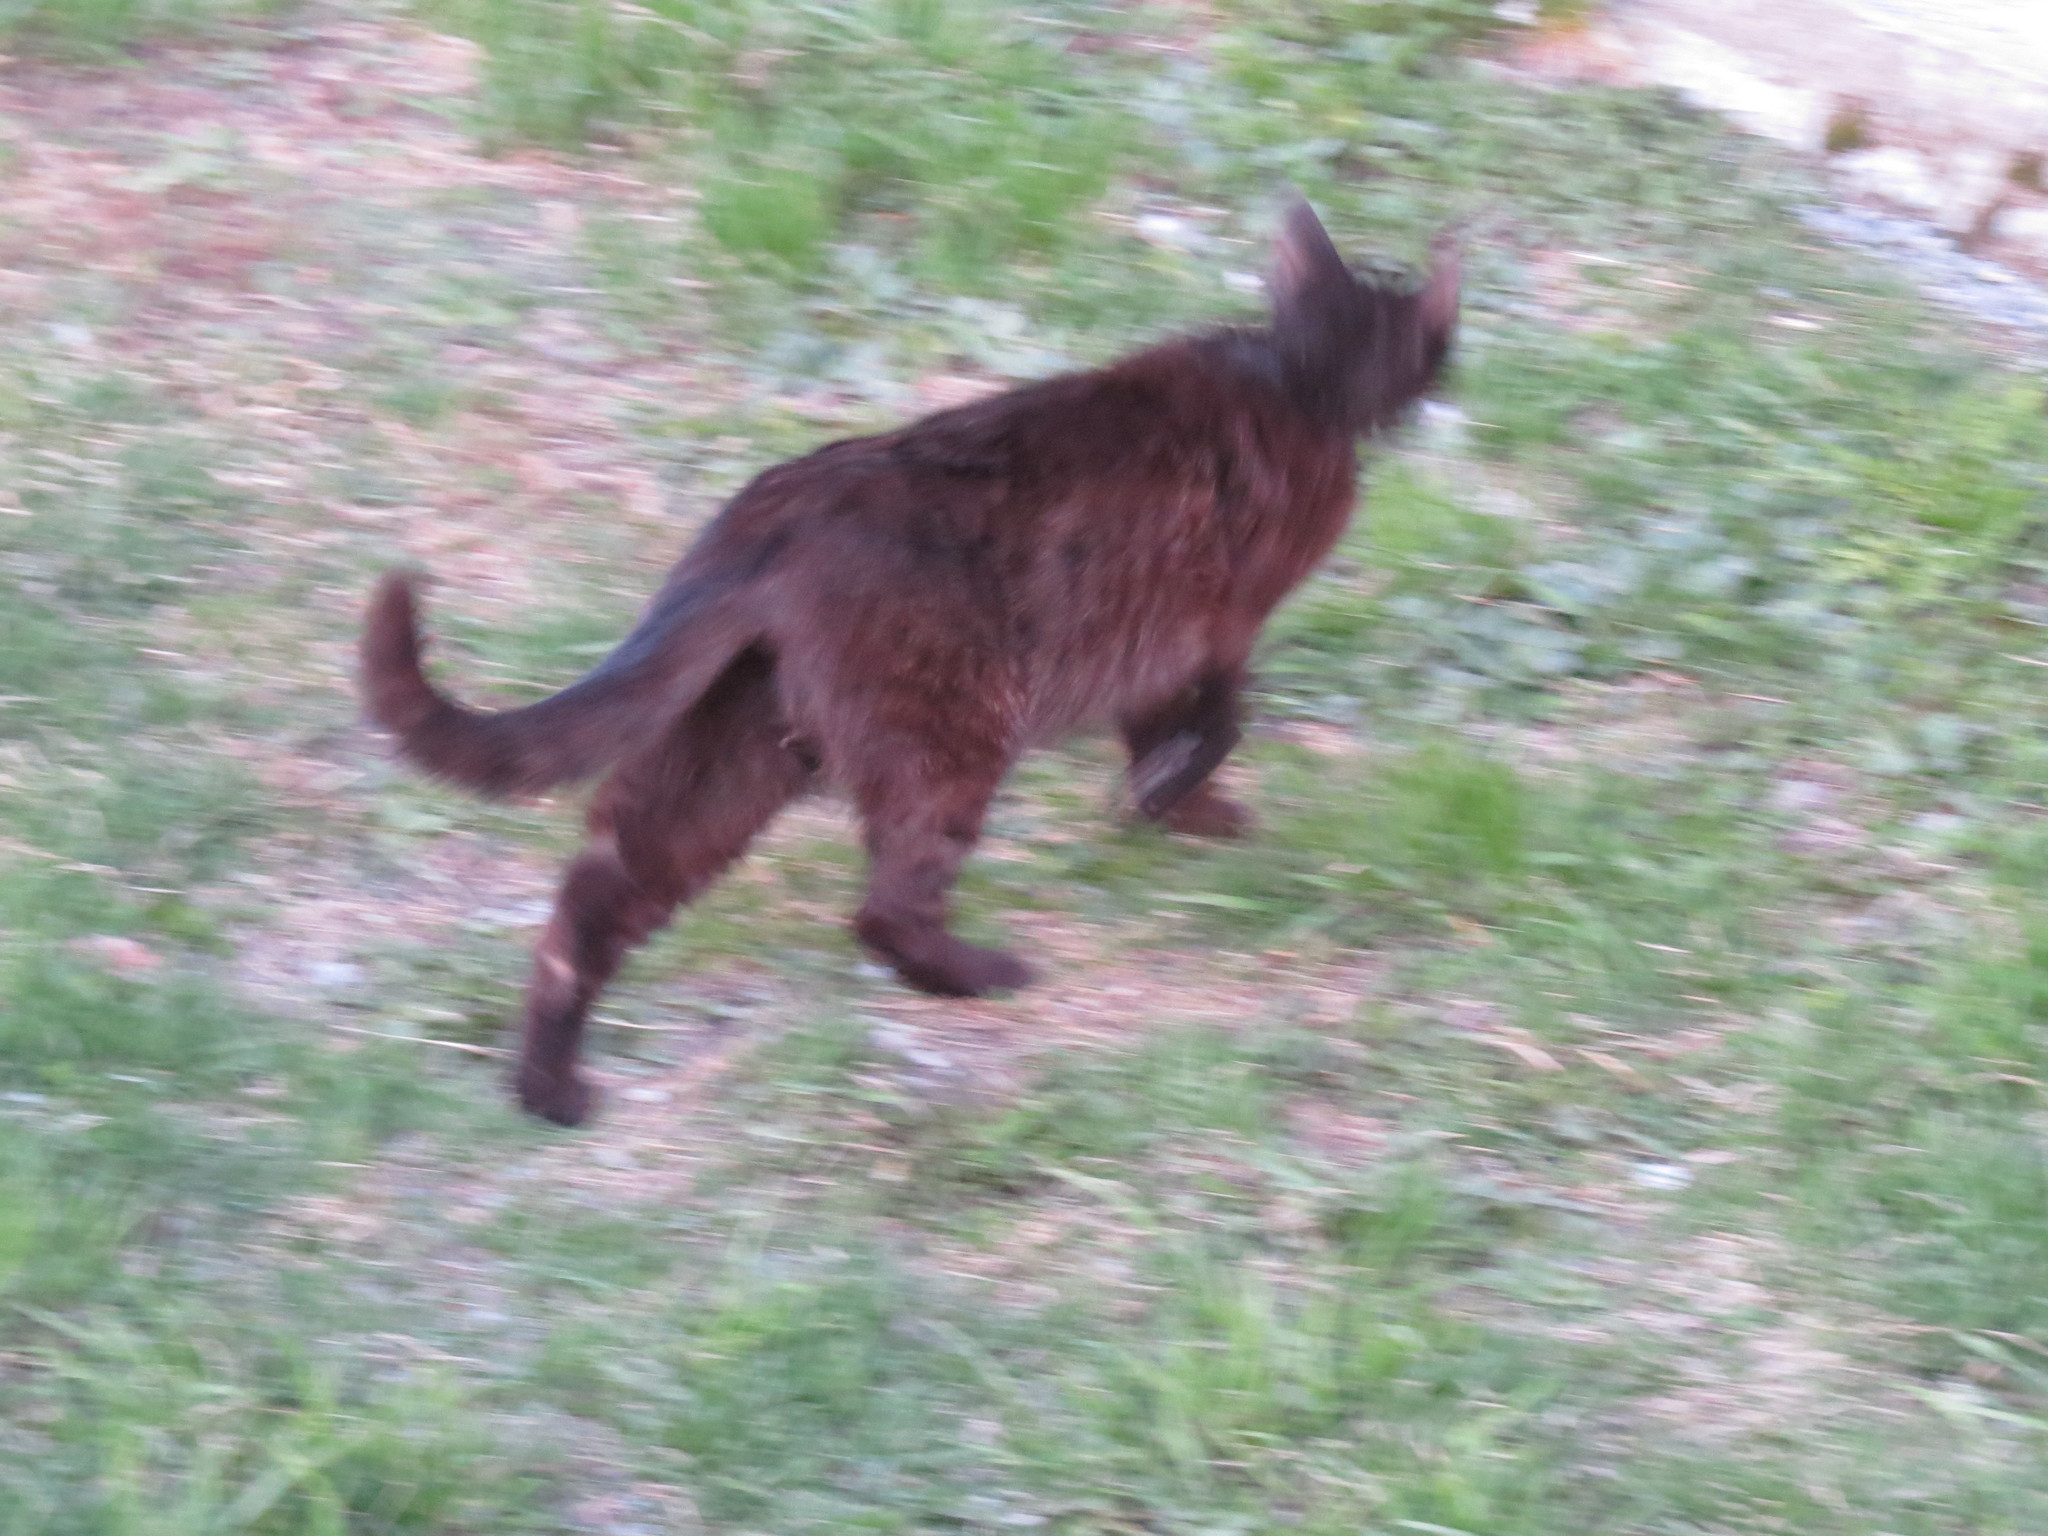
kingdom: Animalia
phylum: Chordata
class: Mammalia
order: Carnivora
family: Felidae
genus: Felis
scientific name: Felis catus
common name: Domestic cat
